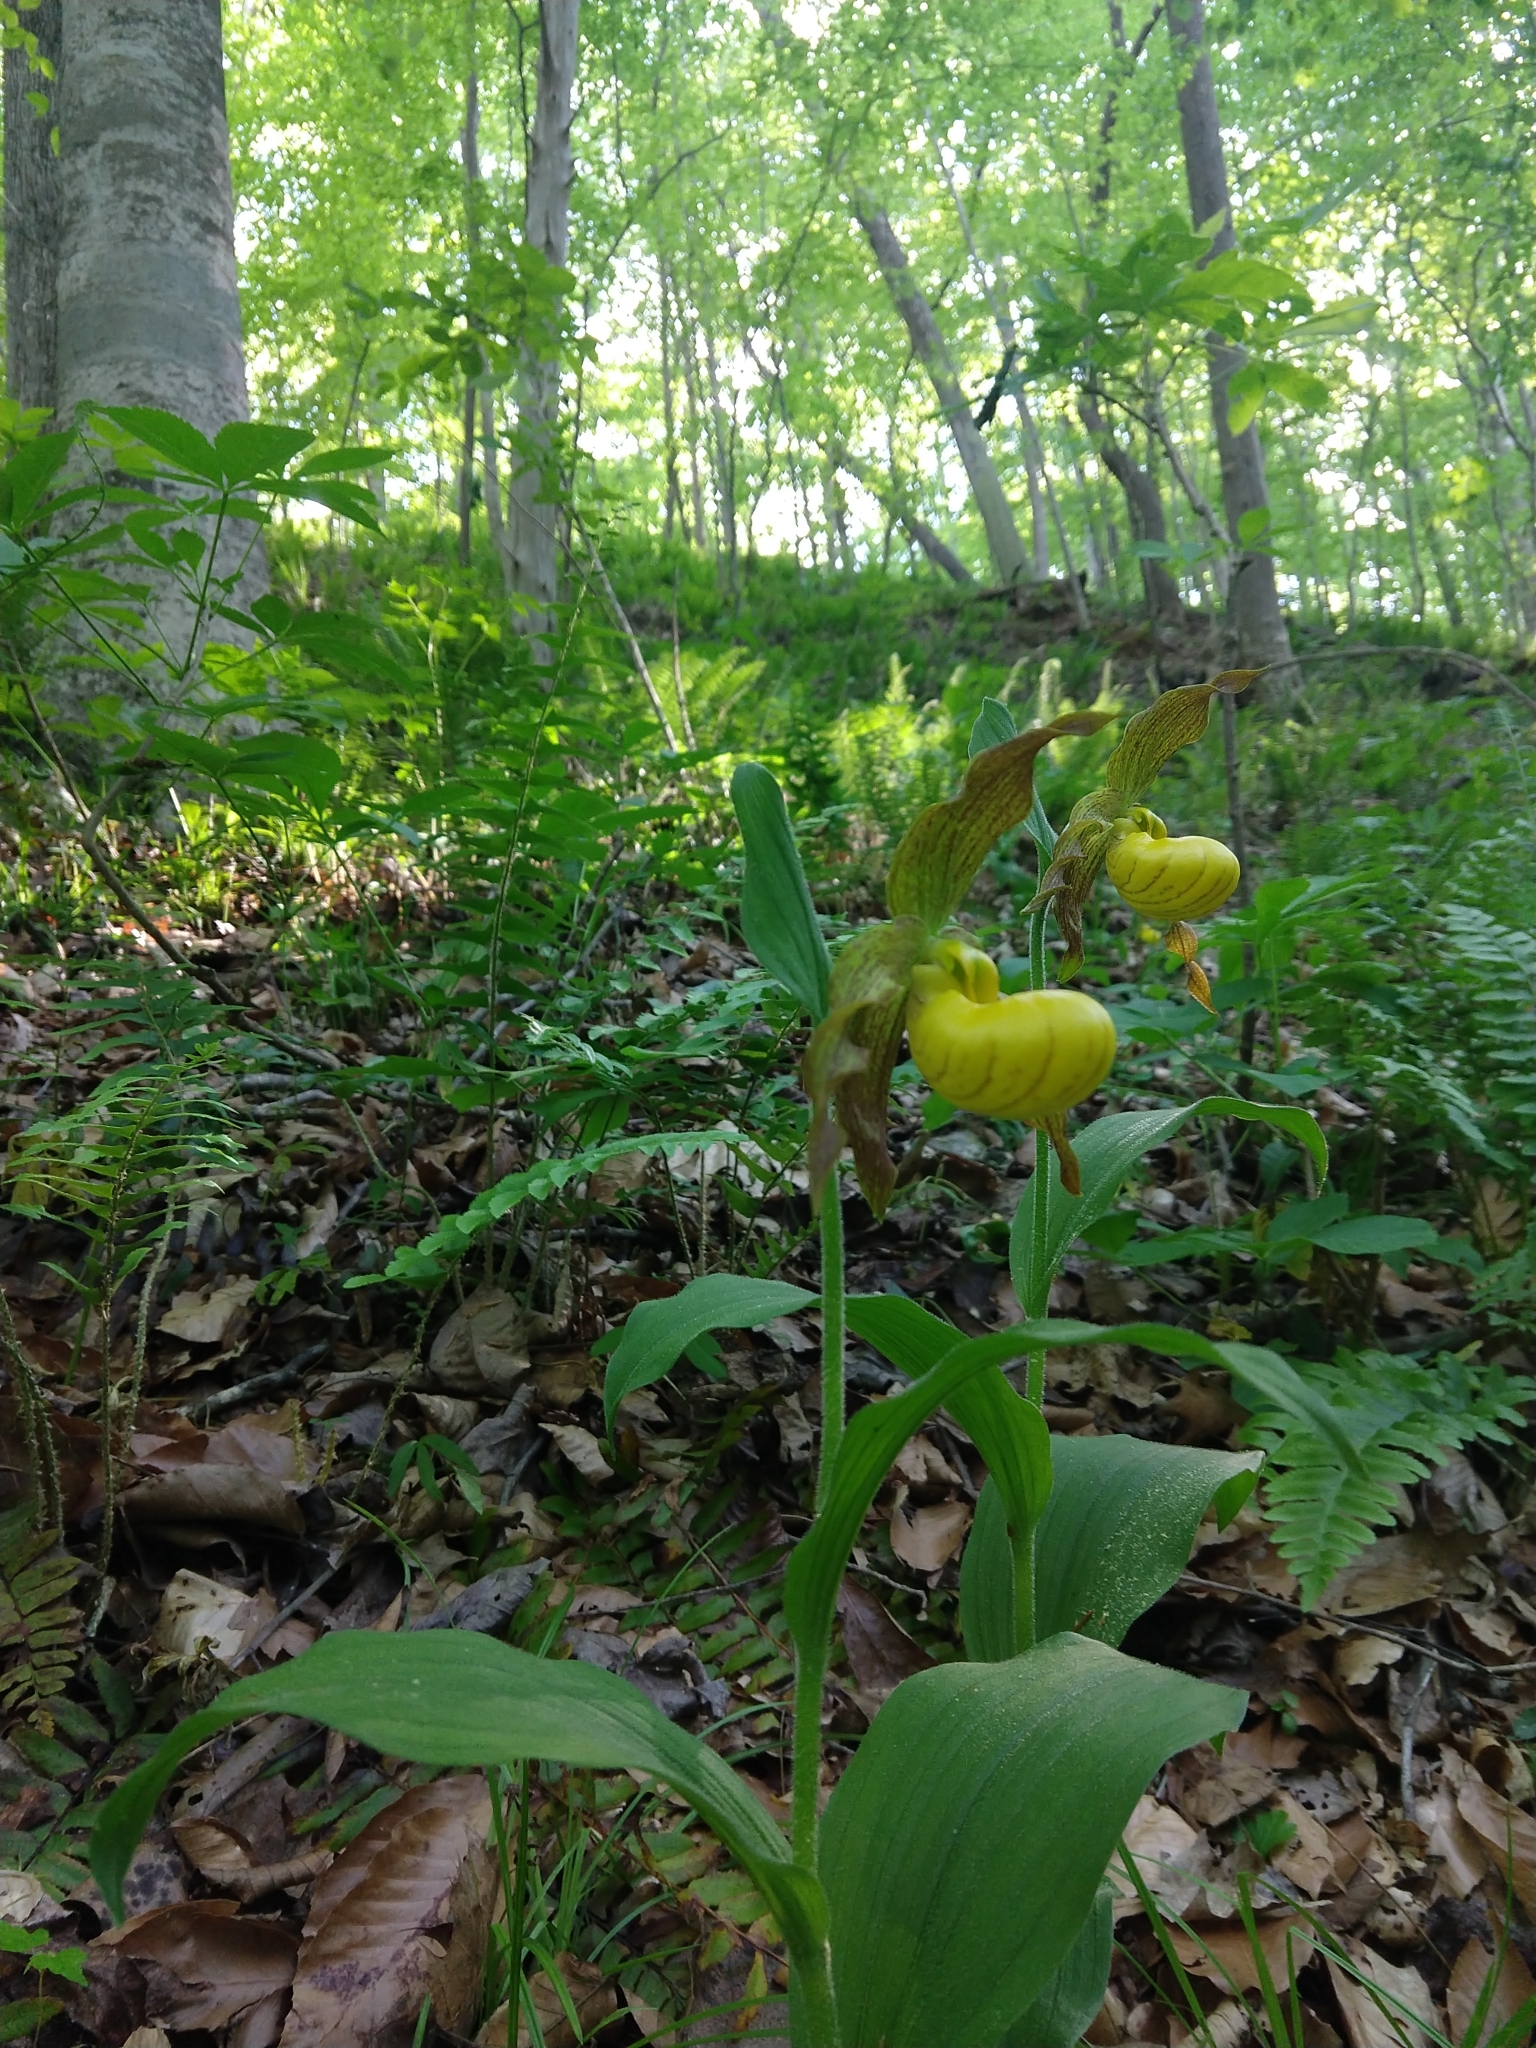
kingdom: Plantae
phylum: Tracheophyta
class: Liliopsida
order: Asparagales
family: Orchidaceae
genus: Cypripedium
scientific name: Cypripedium parviflorum
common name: American yellow lady's-slipper
